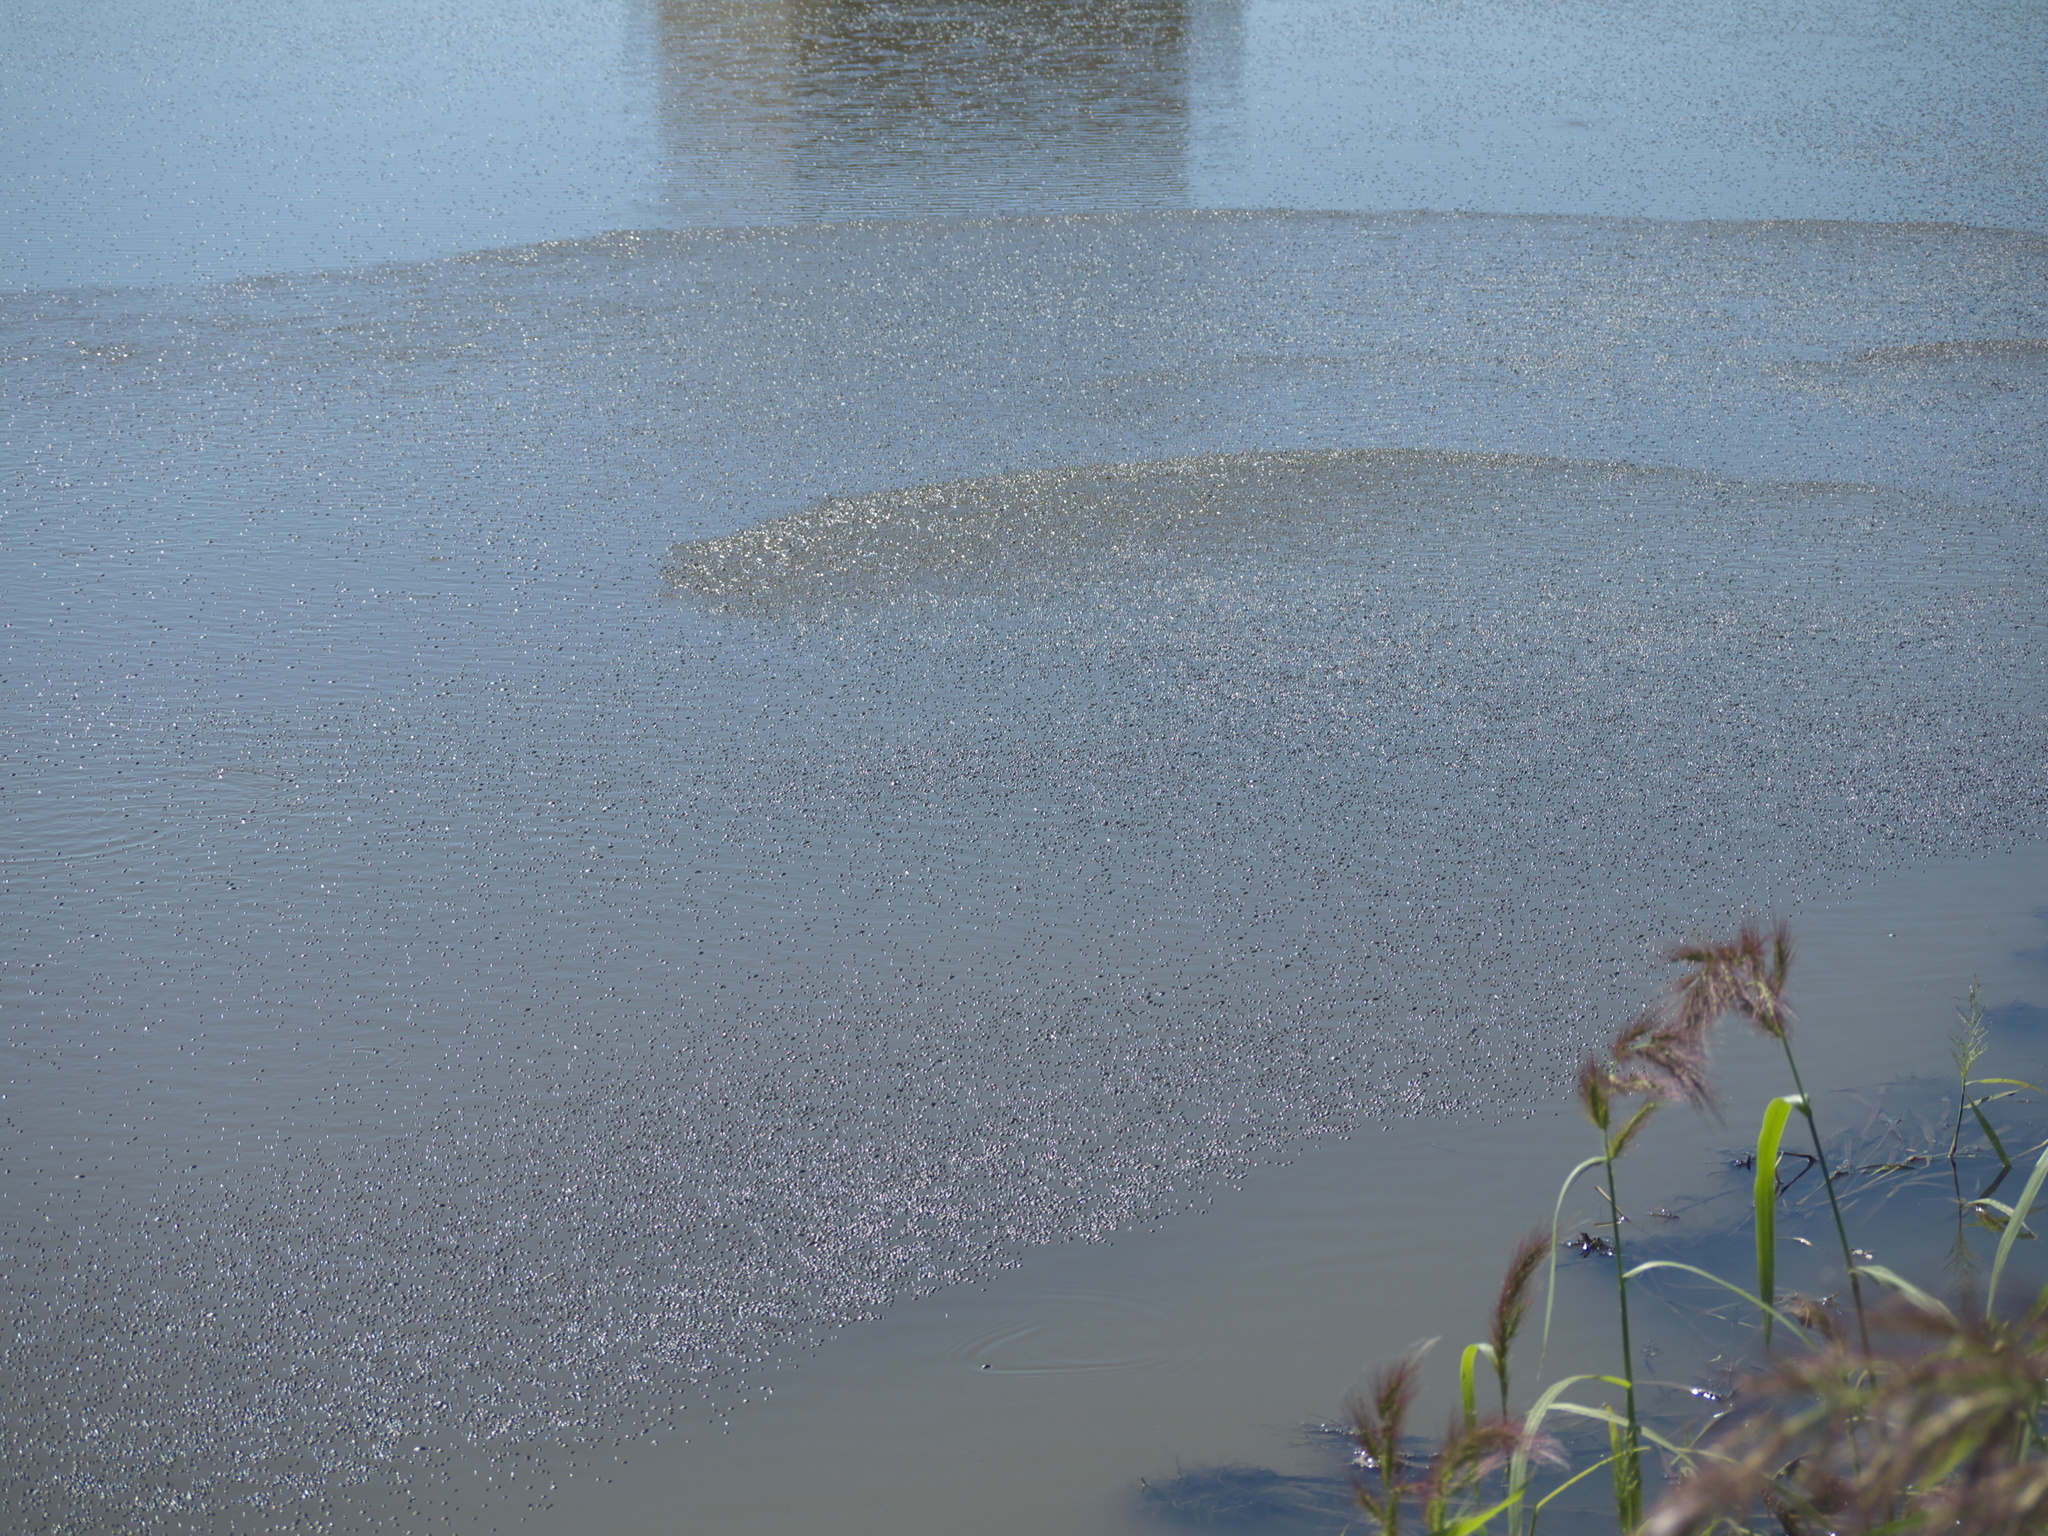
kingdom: Animalia
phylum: Arthropoda
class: Insecta
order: Coleoptera
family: Gyrinidae
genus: Gyrinus
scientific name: Gyrinus
